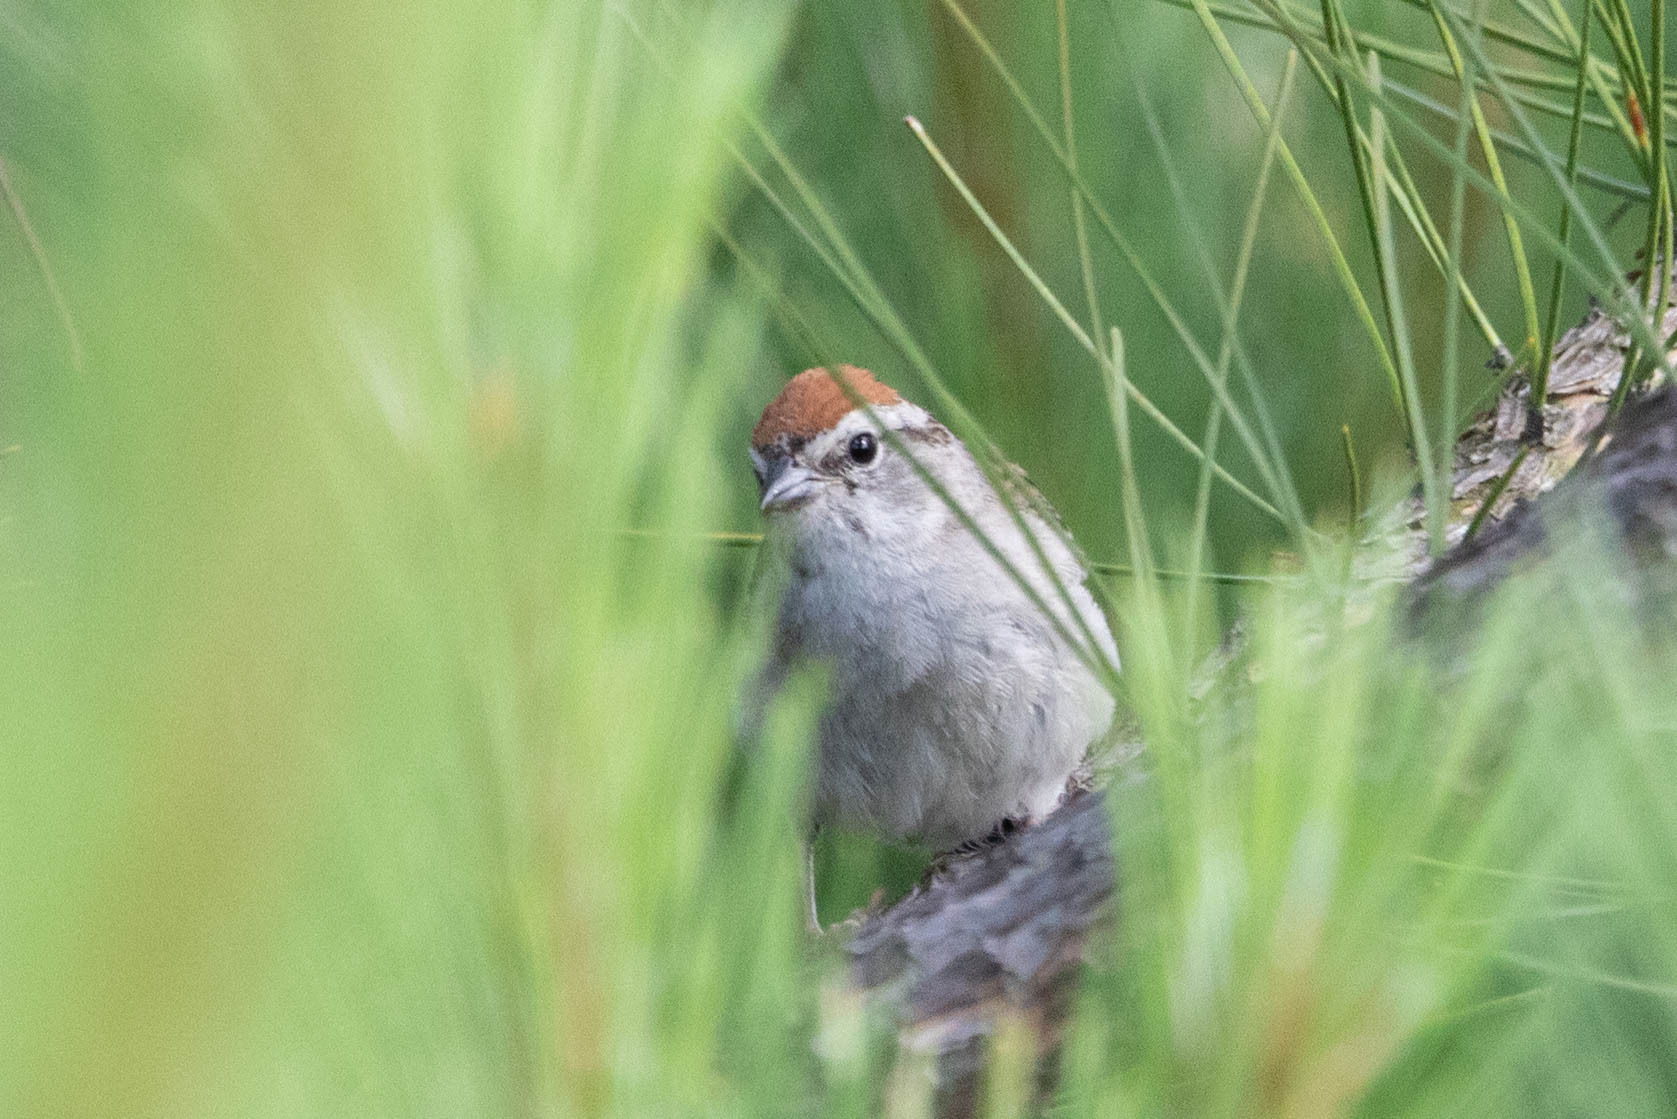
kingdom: Animalia
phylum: Chordata
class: Aves
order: Passeriformes
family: Passerellidae
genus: Spizella
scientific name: Spizella passerina
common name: Chipping sparrow
